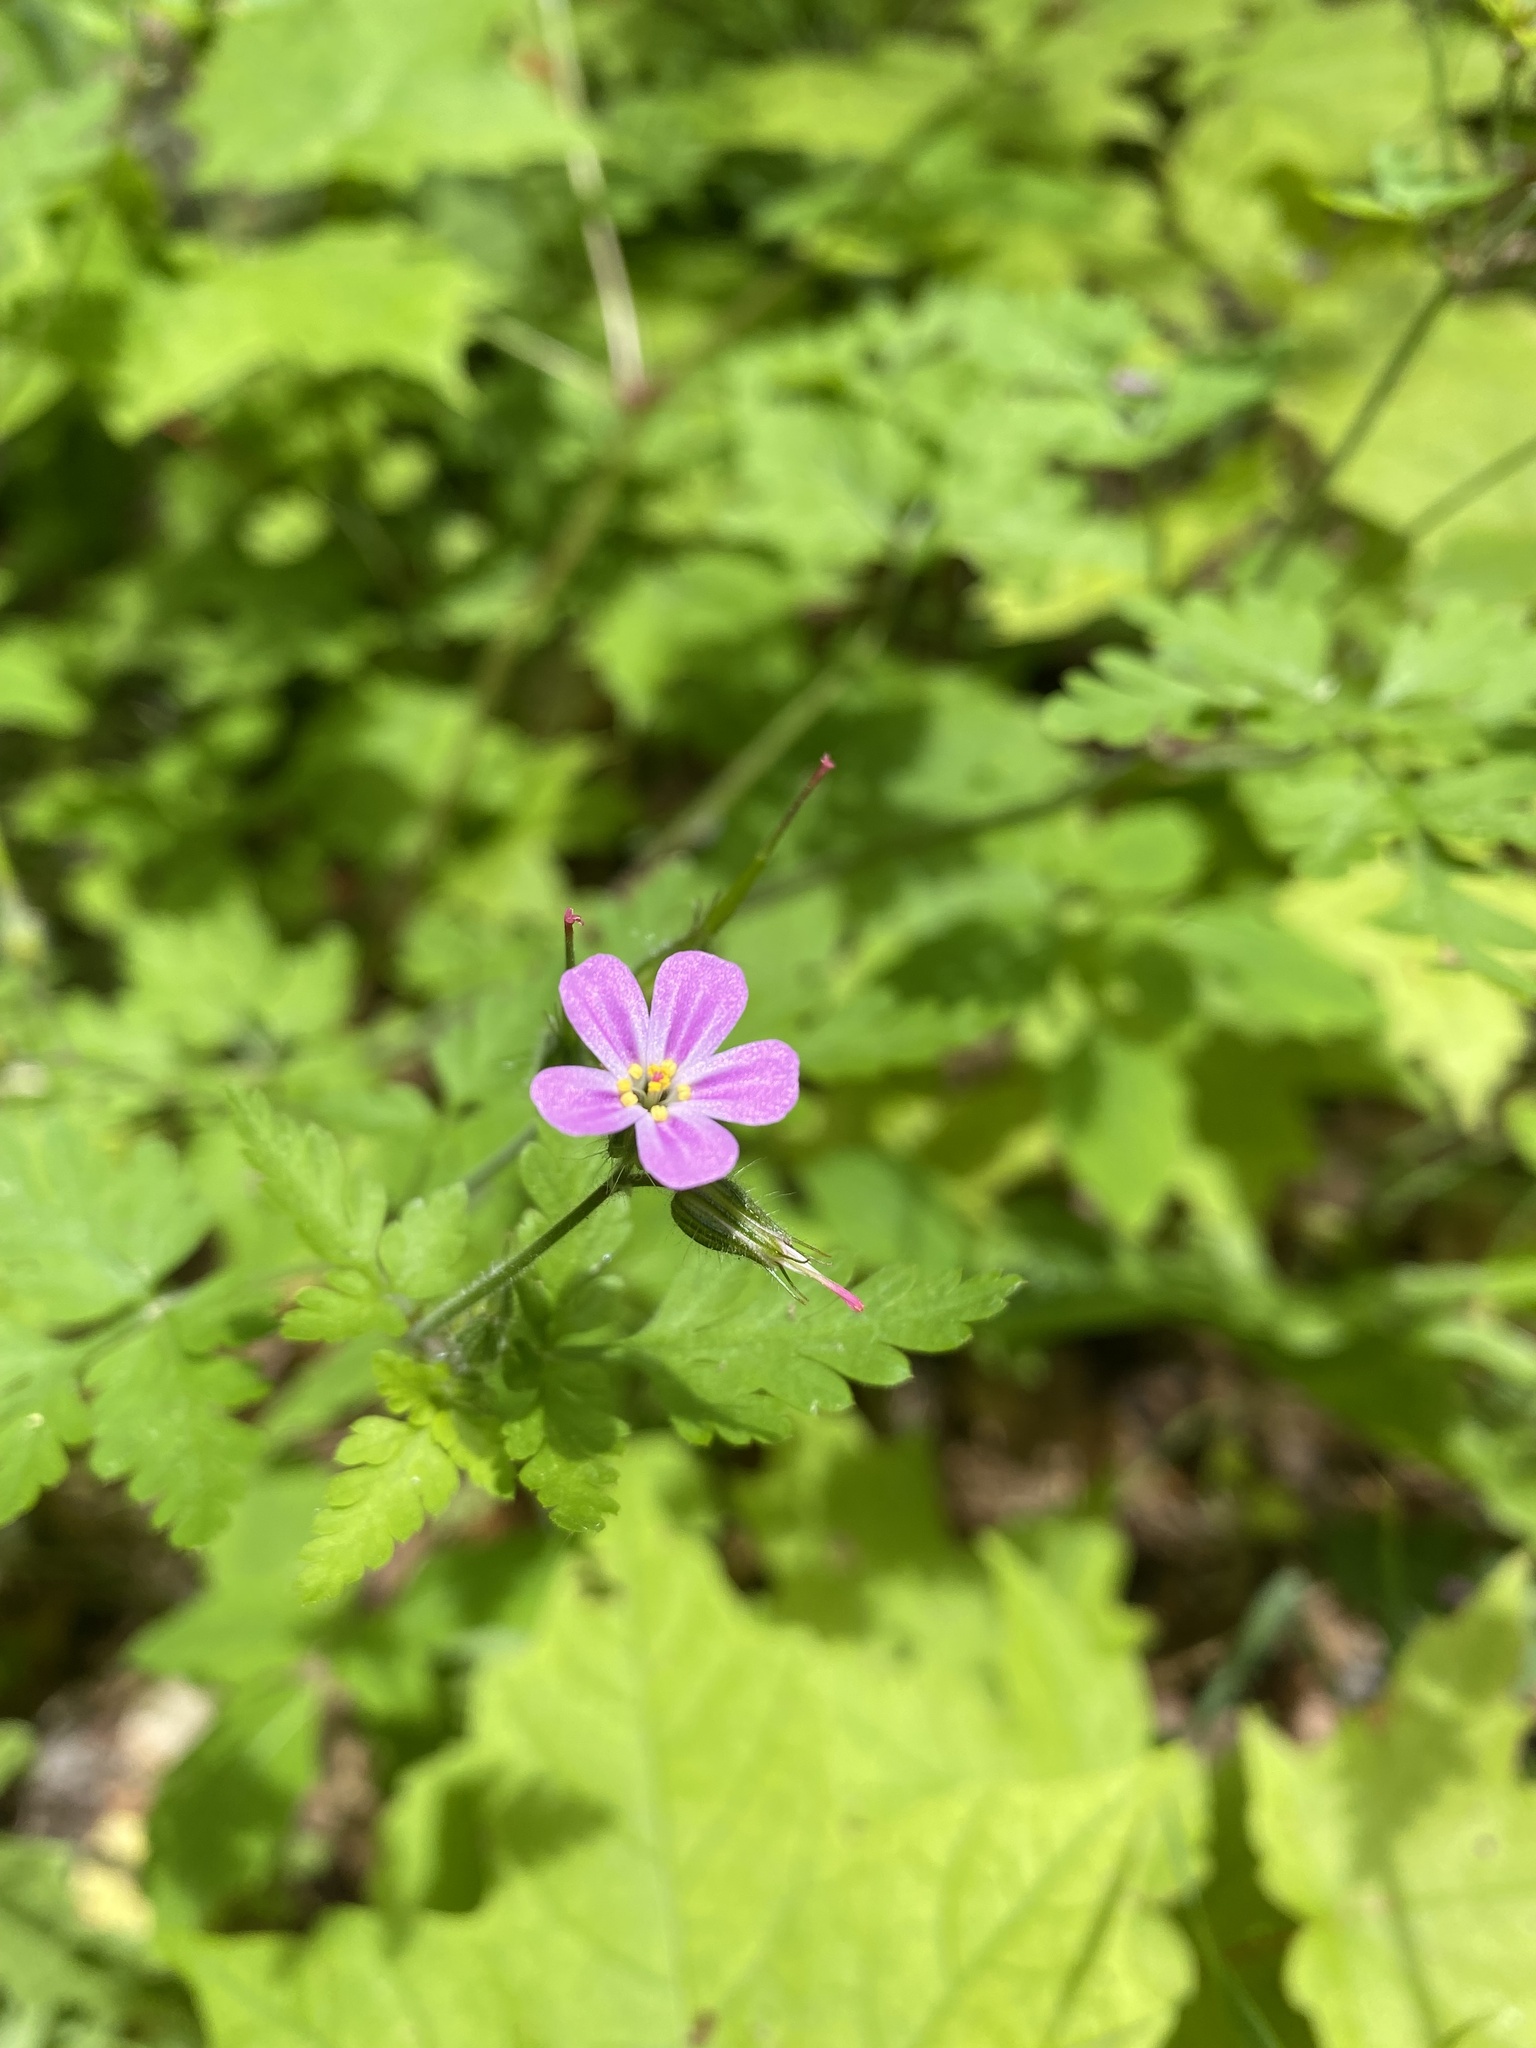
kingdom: Plantae
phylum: Tracheophyta
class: Magnoliopsida
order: Geraniales
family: Geraniaceae
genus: Geranium
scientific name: Geranium robertianum
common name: Herb-robert
